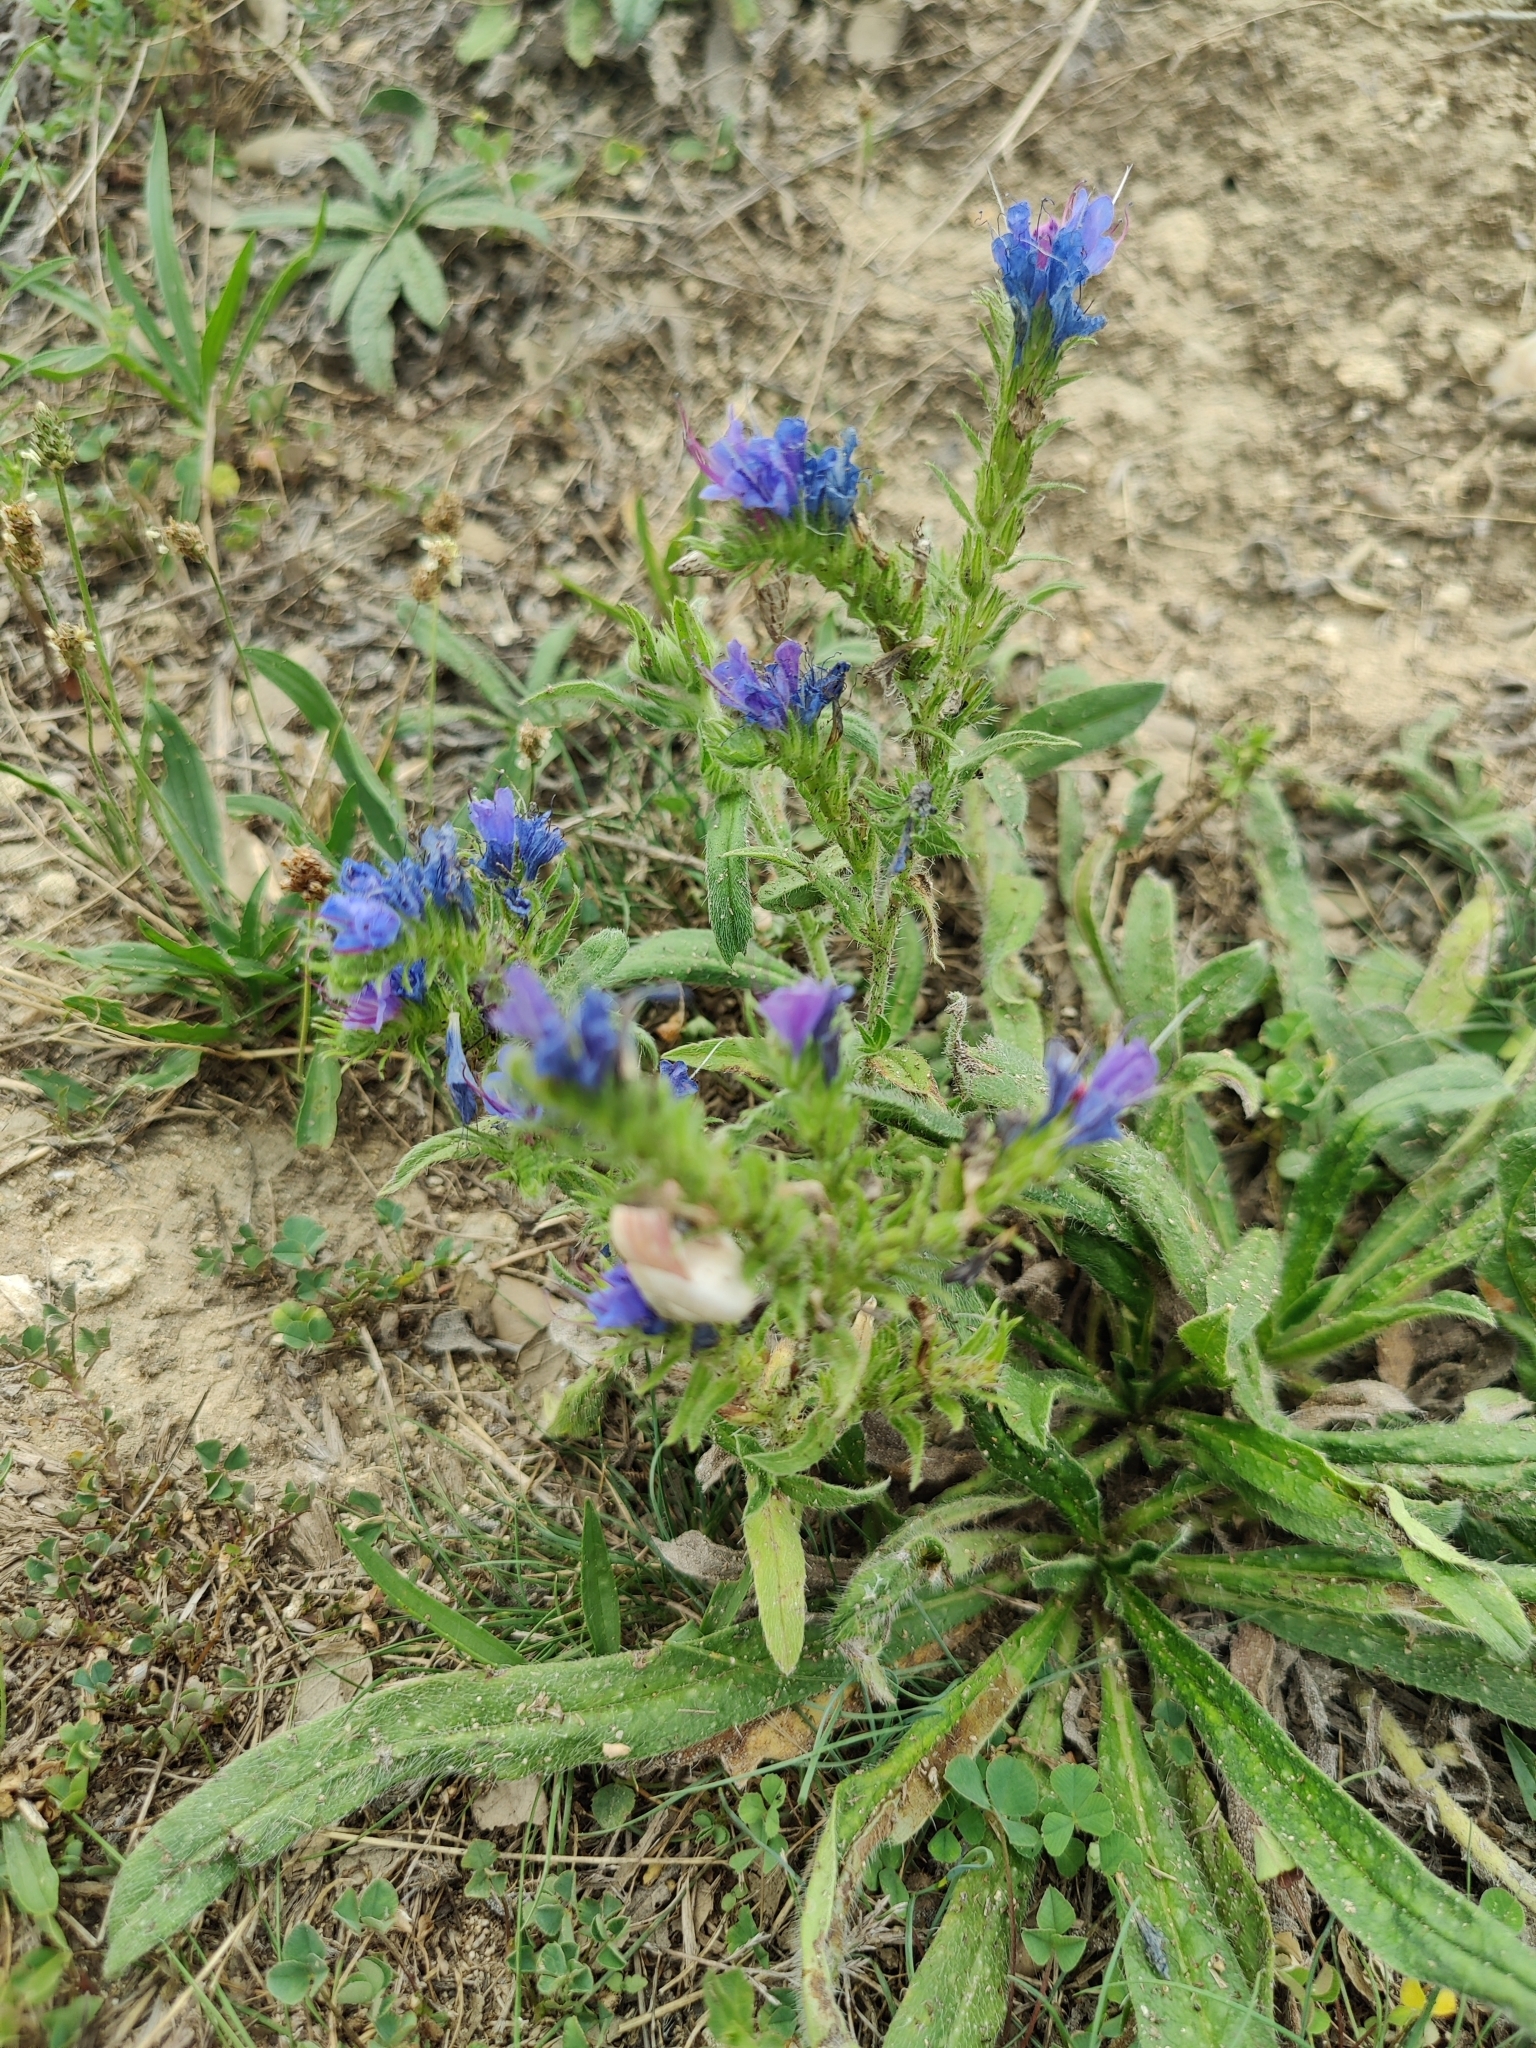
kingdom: Plantae
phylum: Tracheophyta
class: Magnoliopsida
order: Boraginales
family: Boraginaceae
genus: Echium
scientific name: Echium vulgare
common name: Common viper's bugloss
